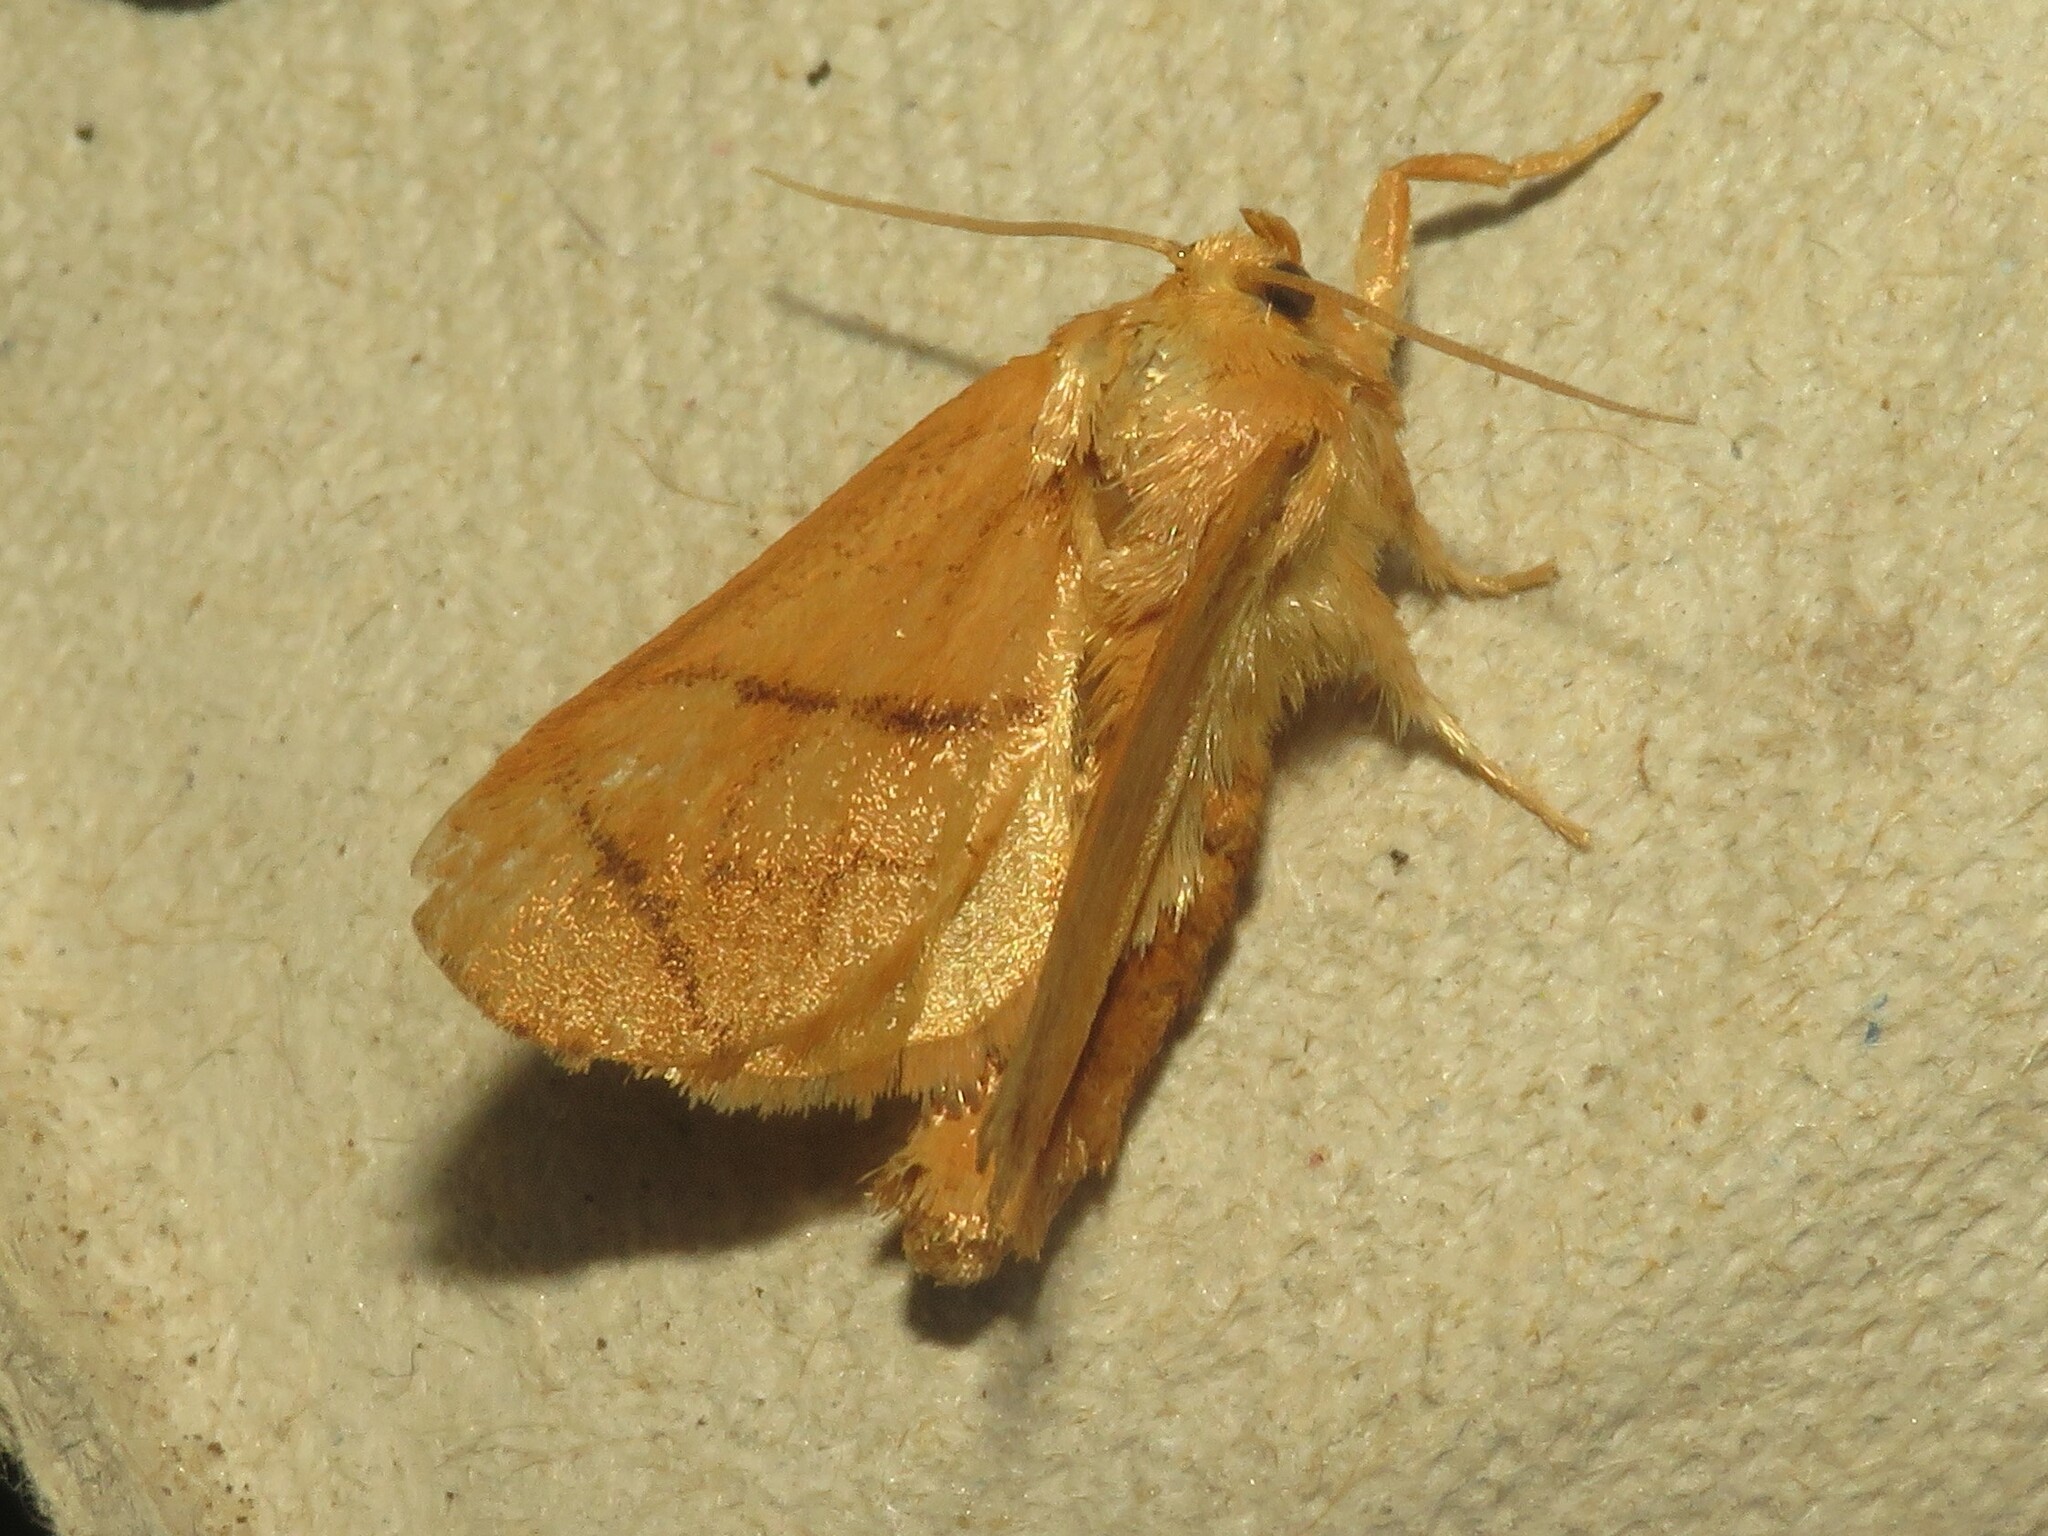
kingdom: Animalia
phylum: Arthropoda
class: Insecta
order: Lepidoptera
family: Limacodidae
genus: Apoda
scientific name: Apoda y-inversa
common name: Yellow-collared slug moth
